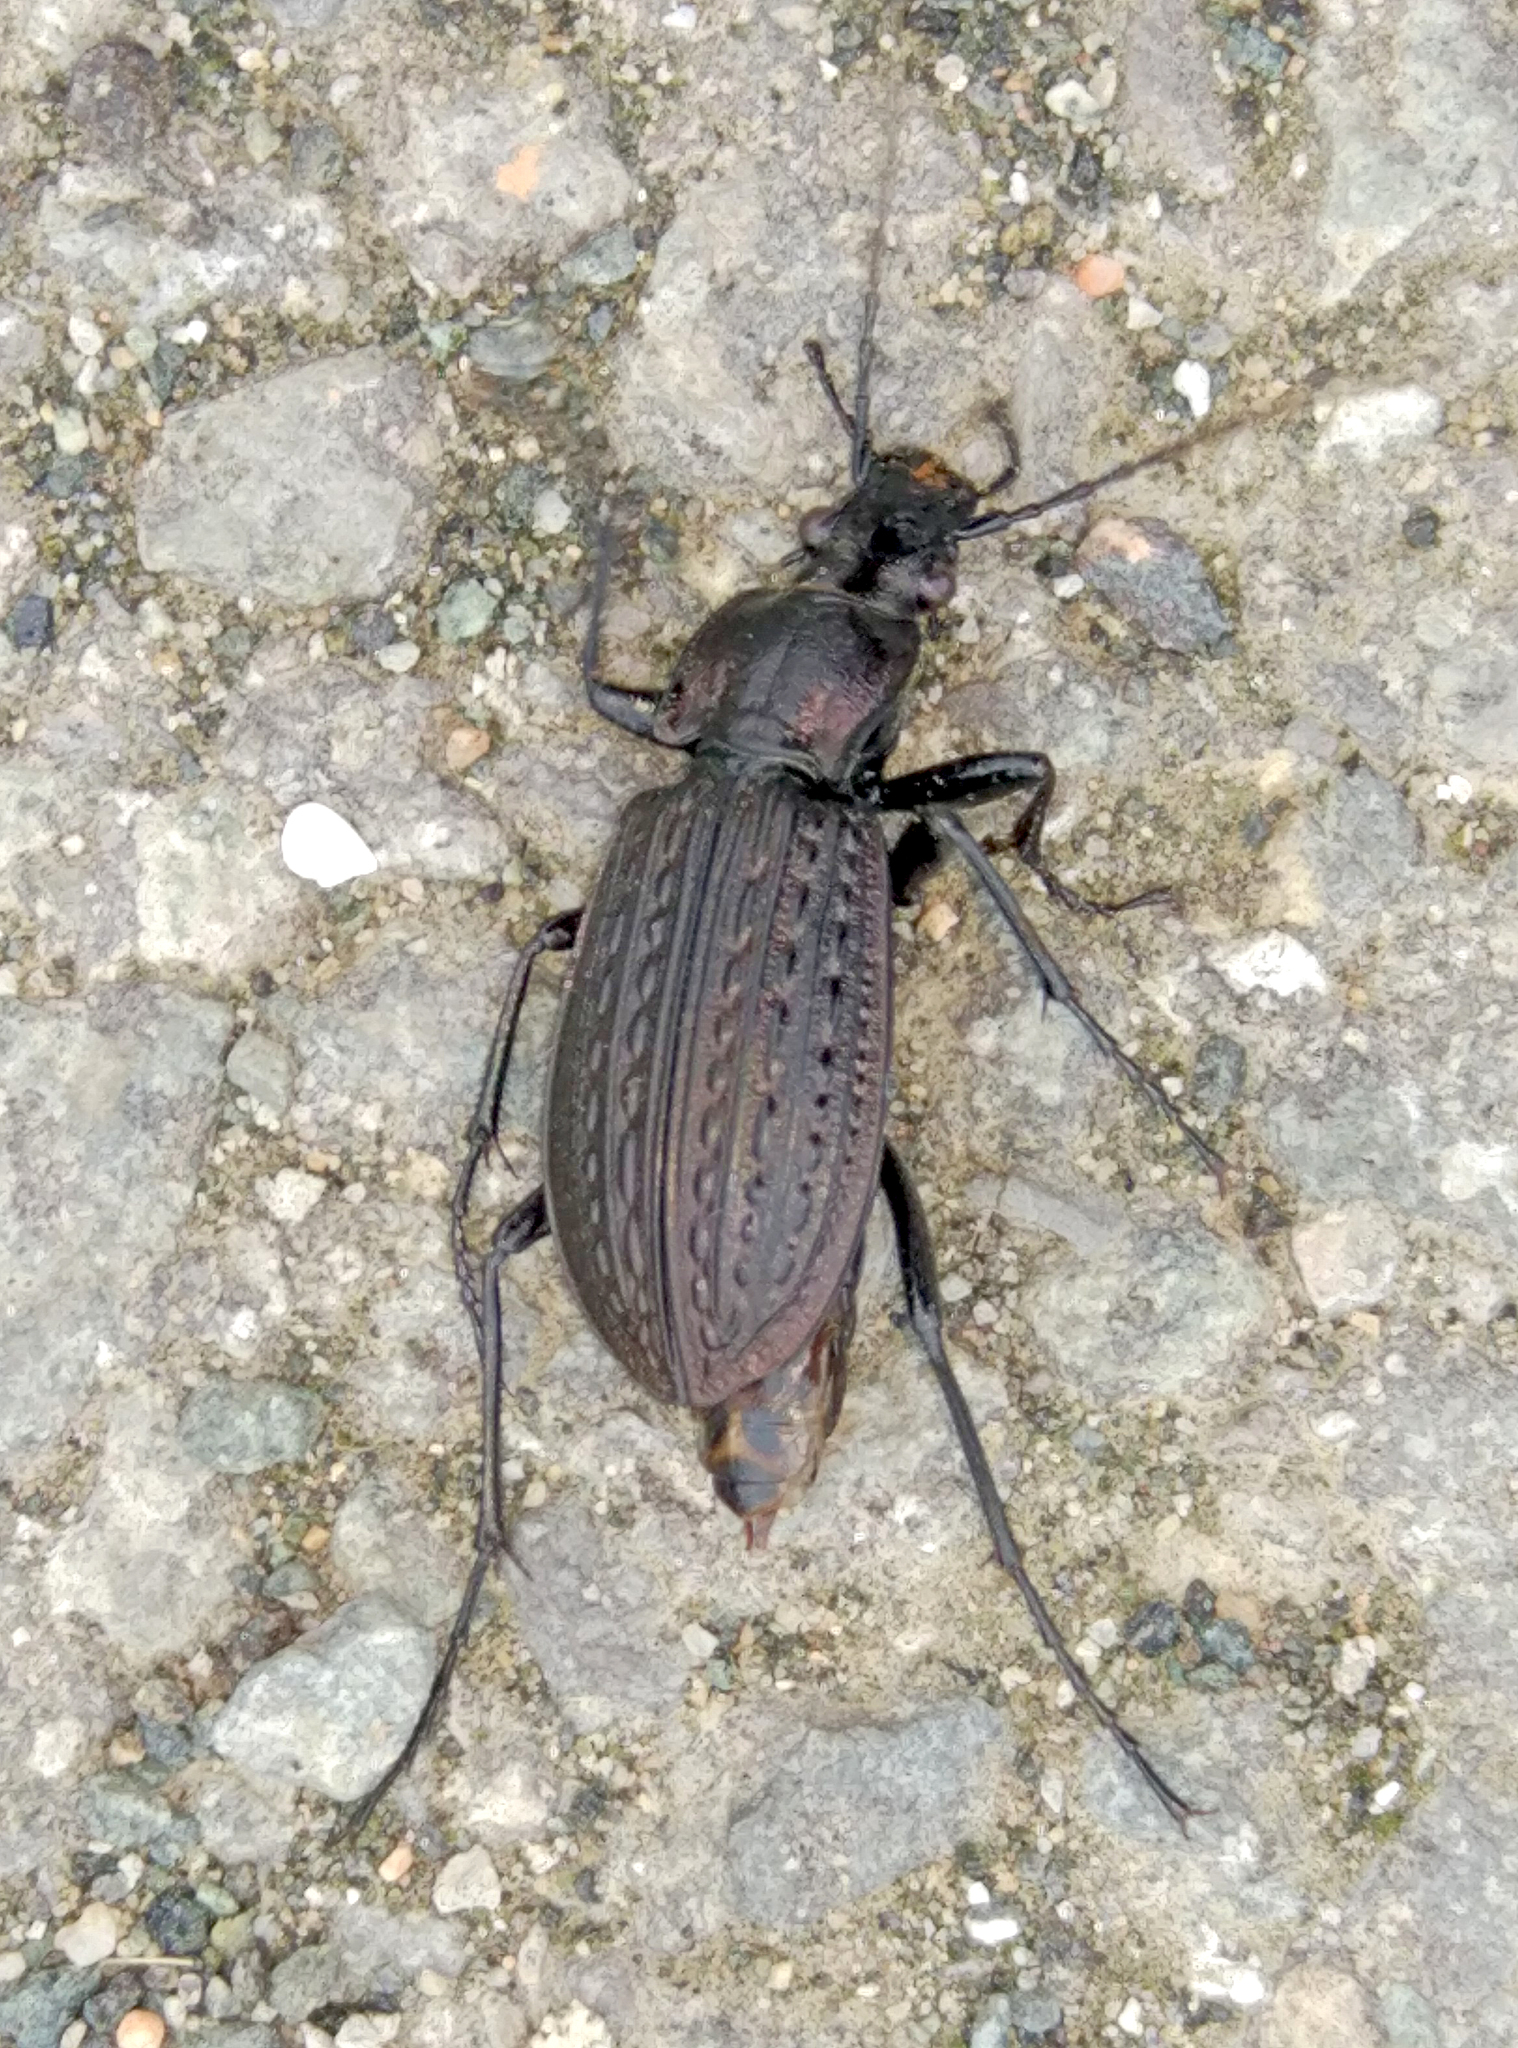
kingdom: Animalia
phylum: Arthropoda
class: Insecta
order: Coleoptera
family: Carabidae
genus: Carabus
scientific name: Carabus granulatus
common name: Granulate ground beetle
